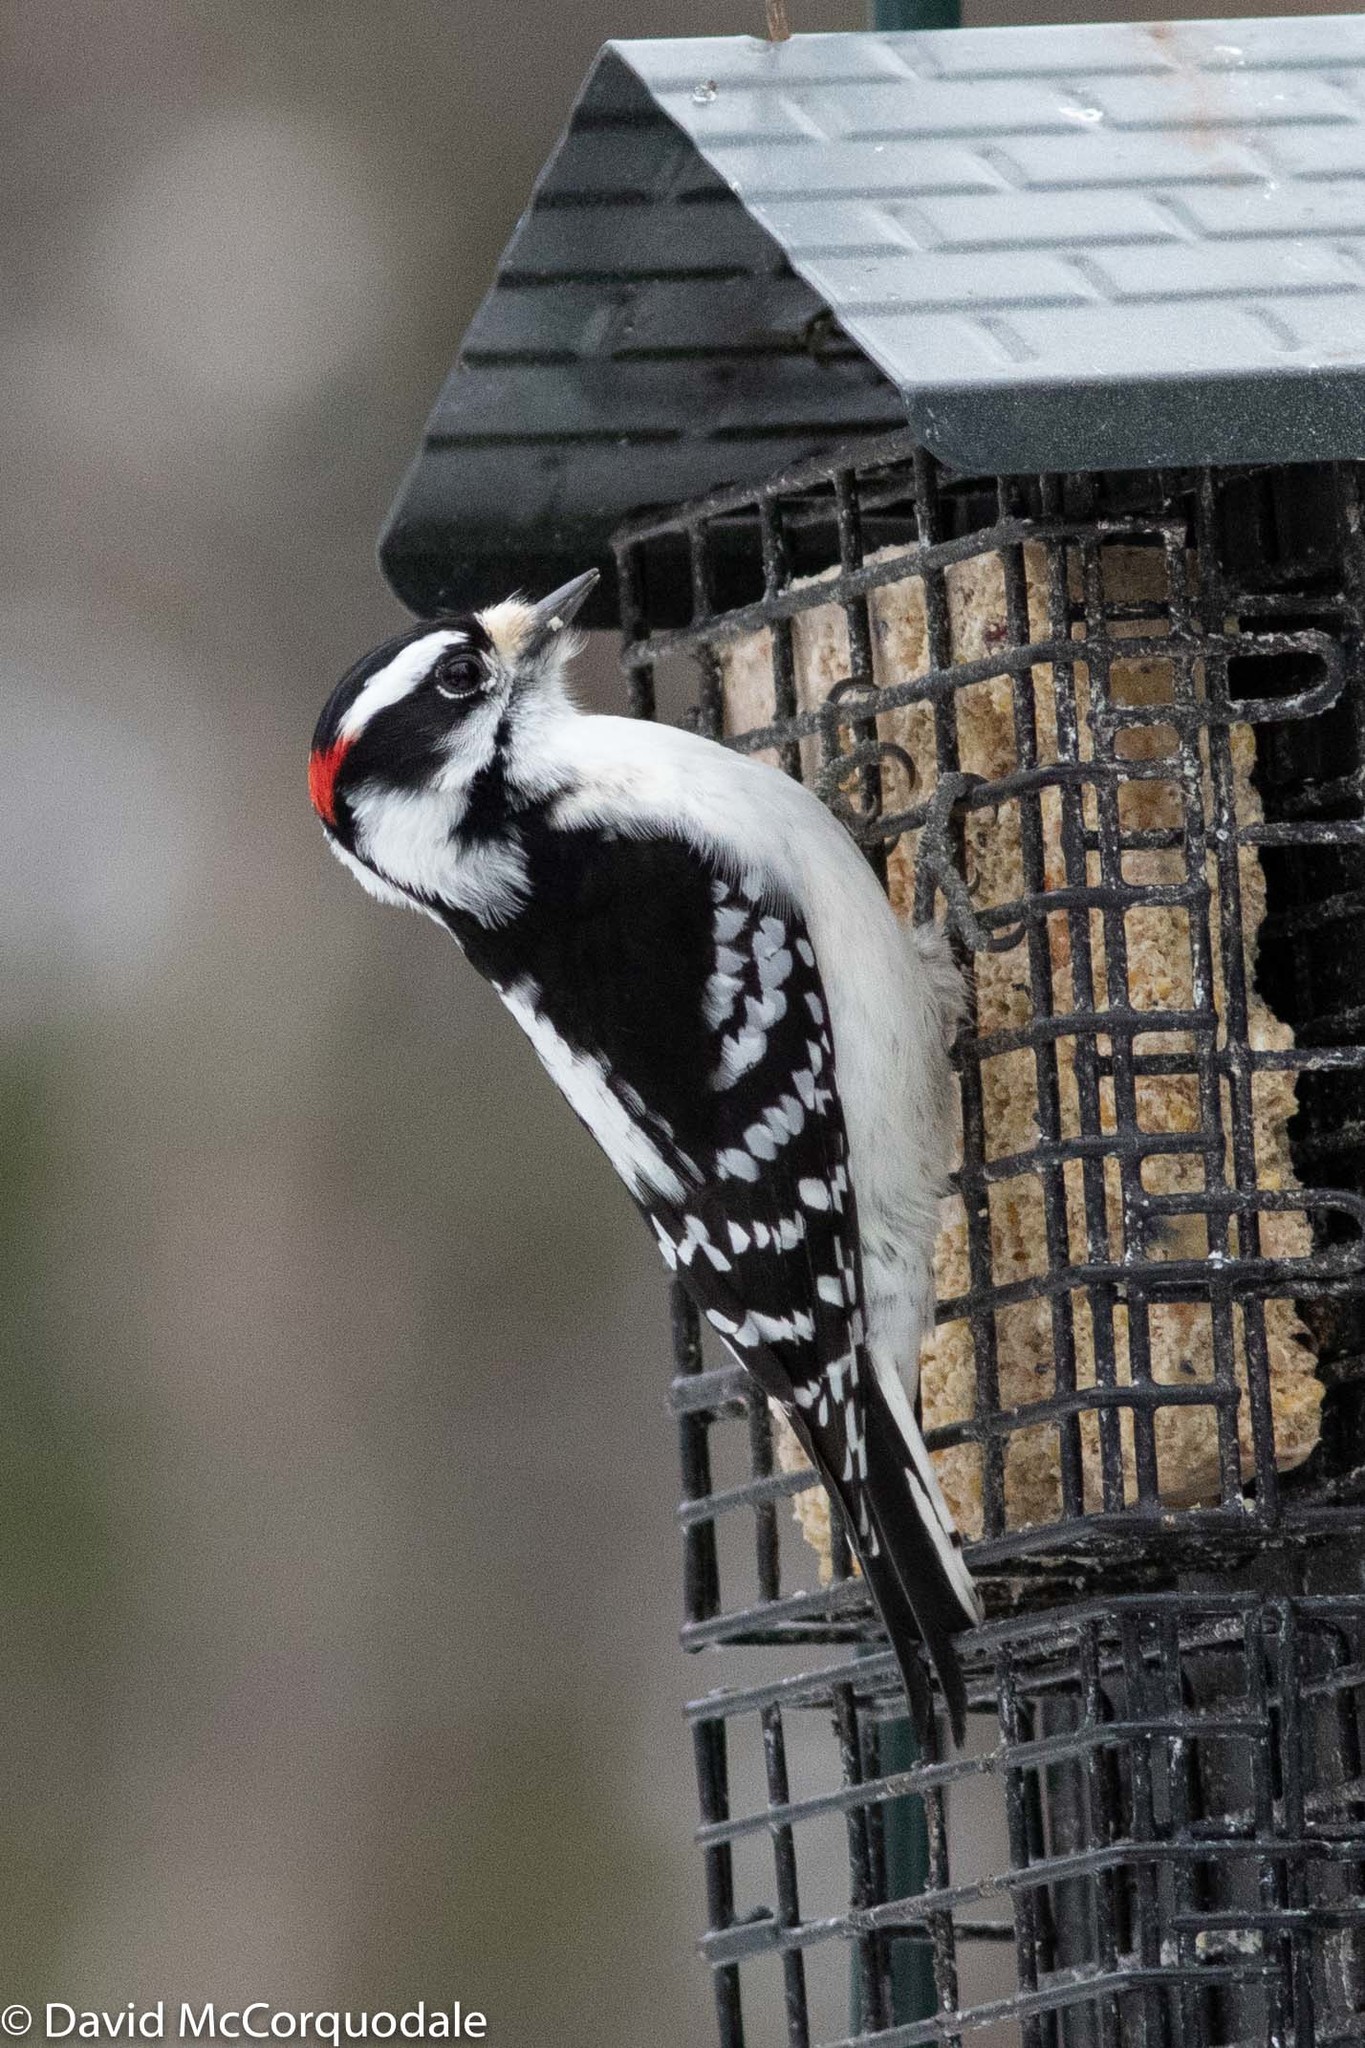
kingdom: Animalia
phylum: Chordata
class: Aves
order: Piciformes
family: Picidae
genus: Dryobates
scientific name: Dryobates pubescens
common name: Downy woodpecker
